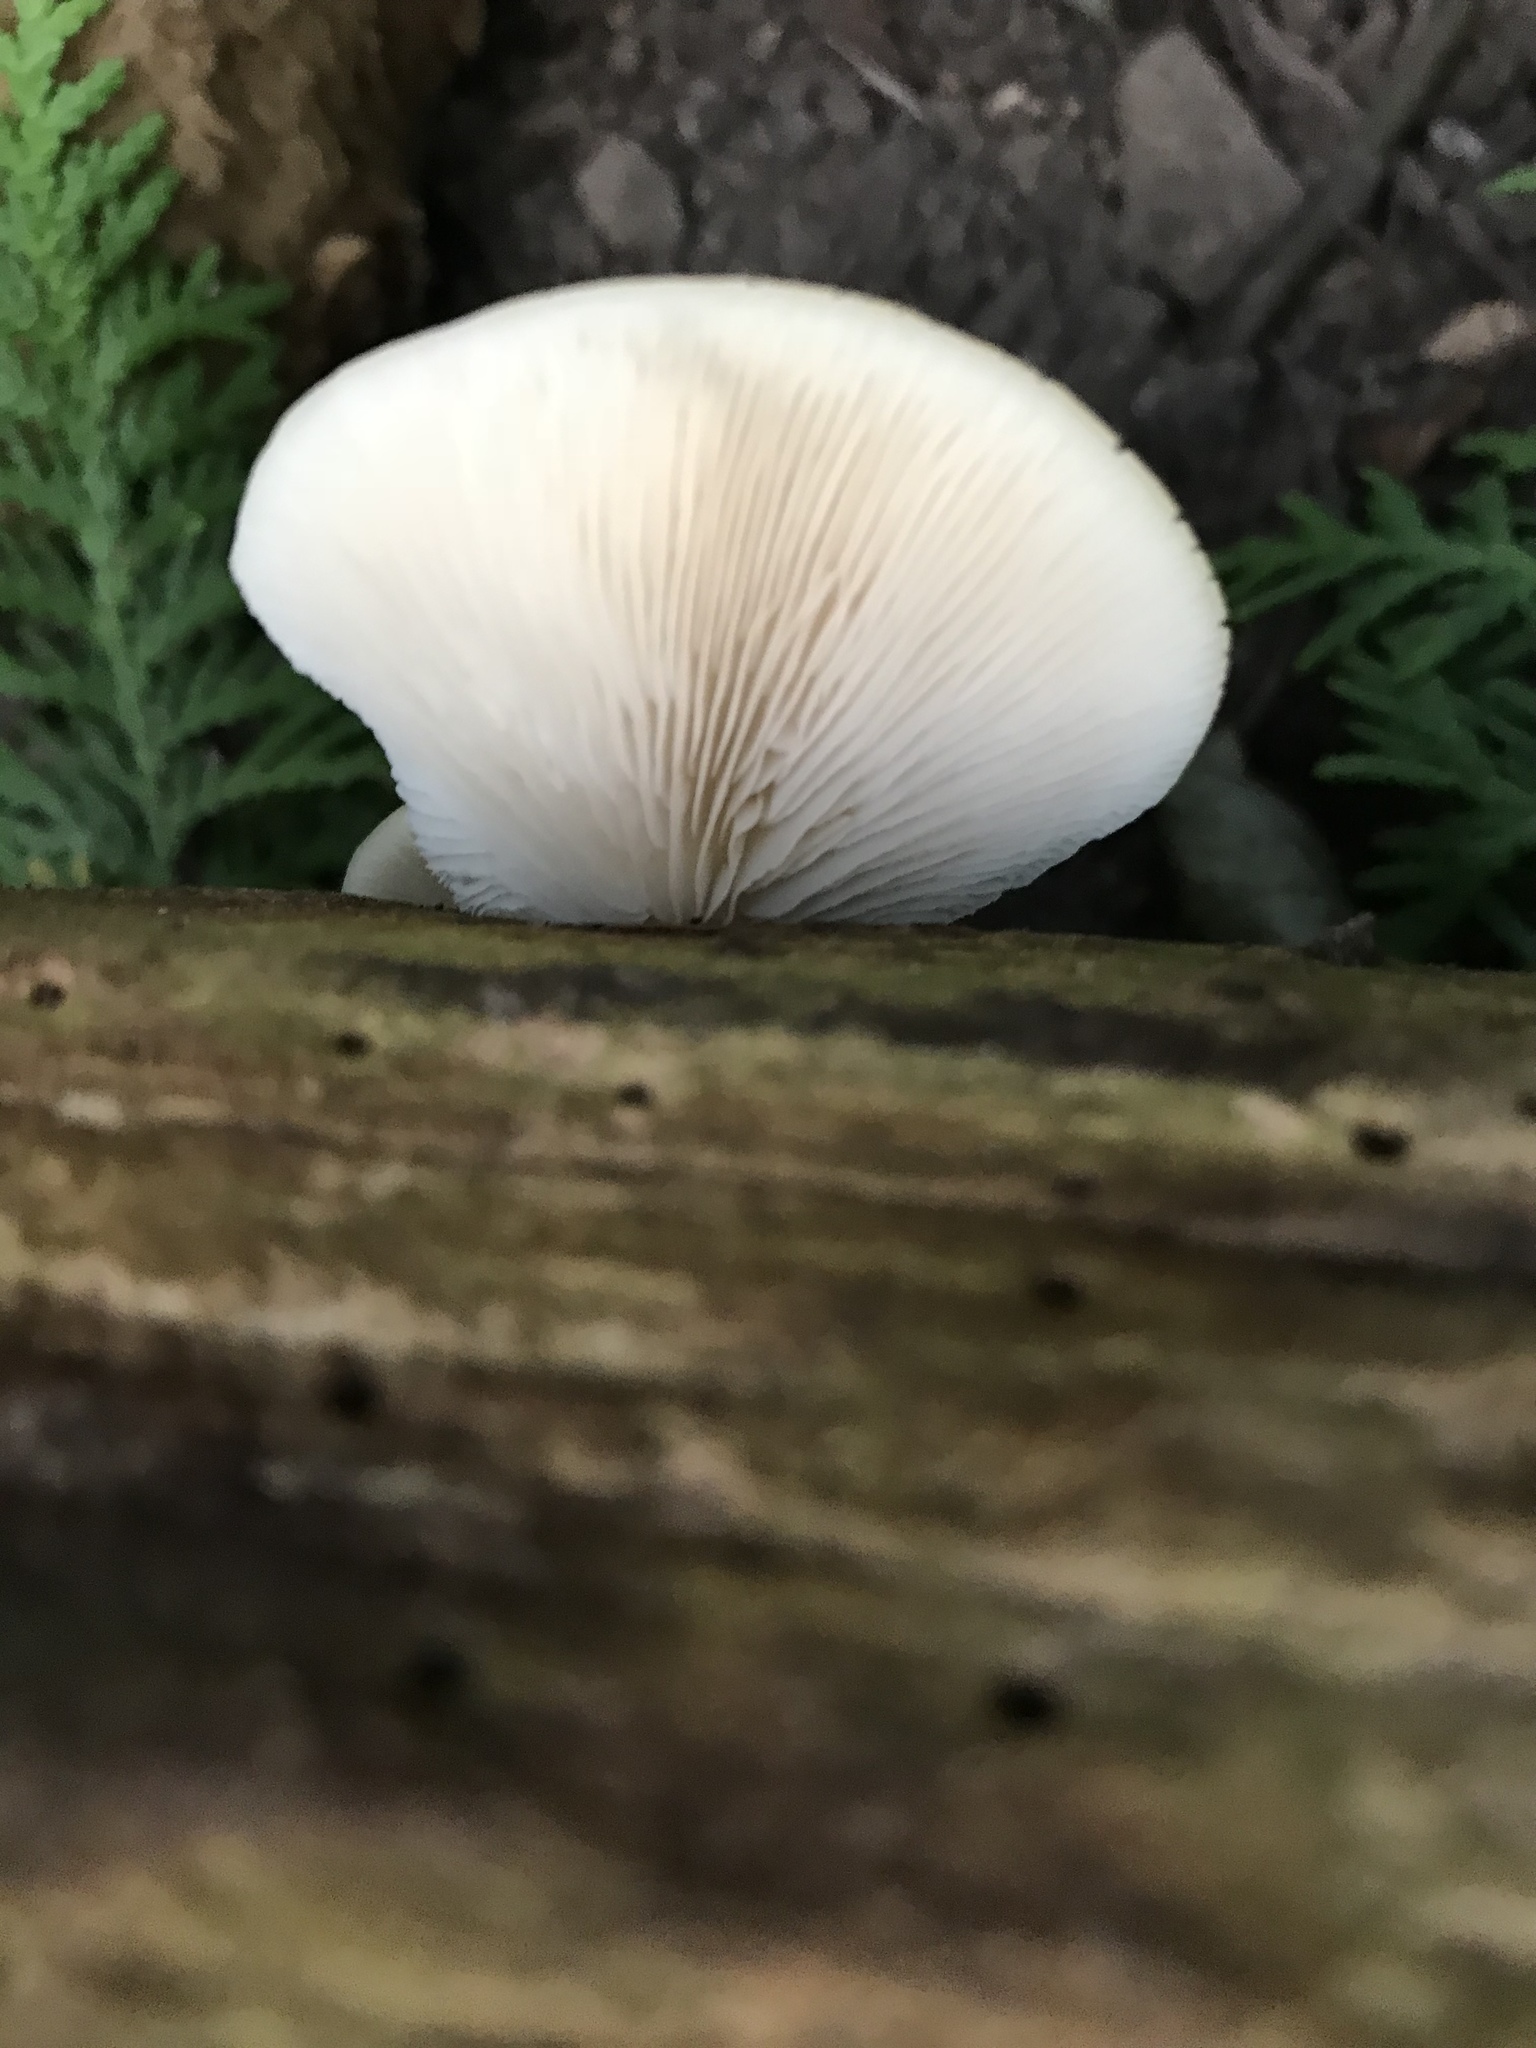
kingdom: Fungi
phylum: Basidiomycota
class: Agaricomycetes
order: Agaricales
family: Crepidotaceae
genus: Crepidotus
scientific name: Crepidotus applanatus
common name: Flat crep
